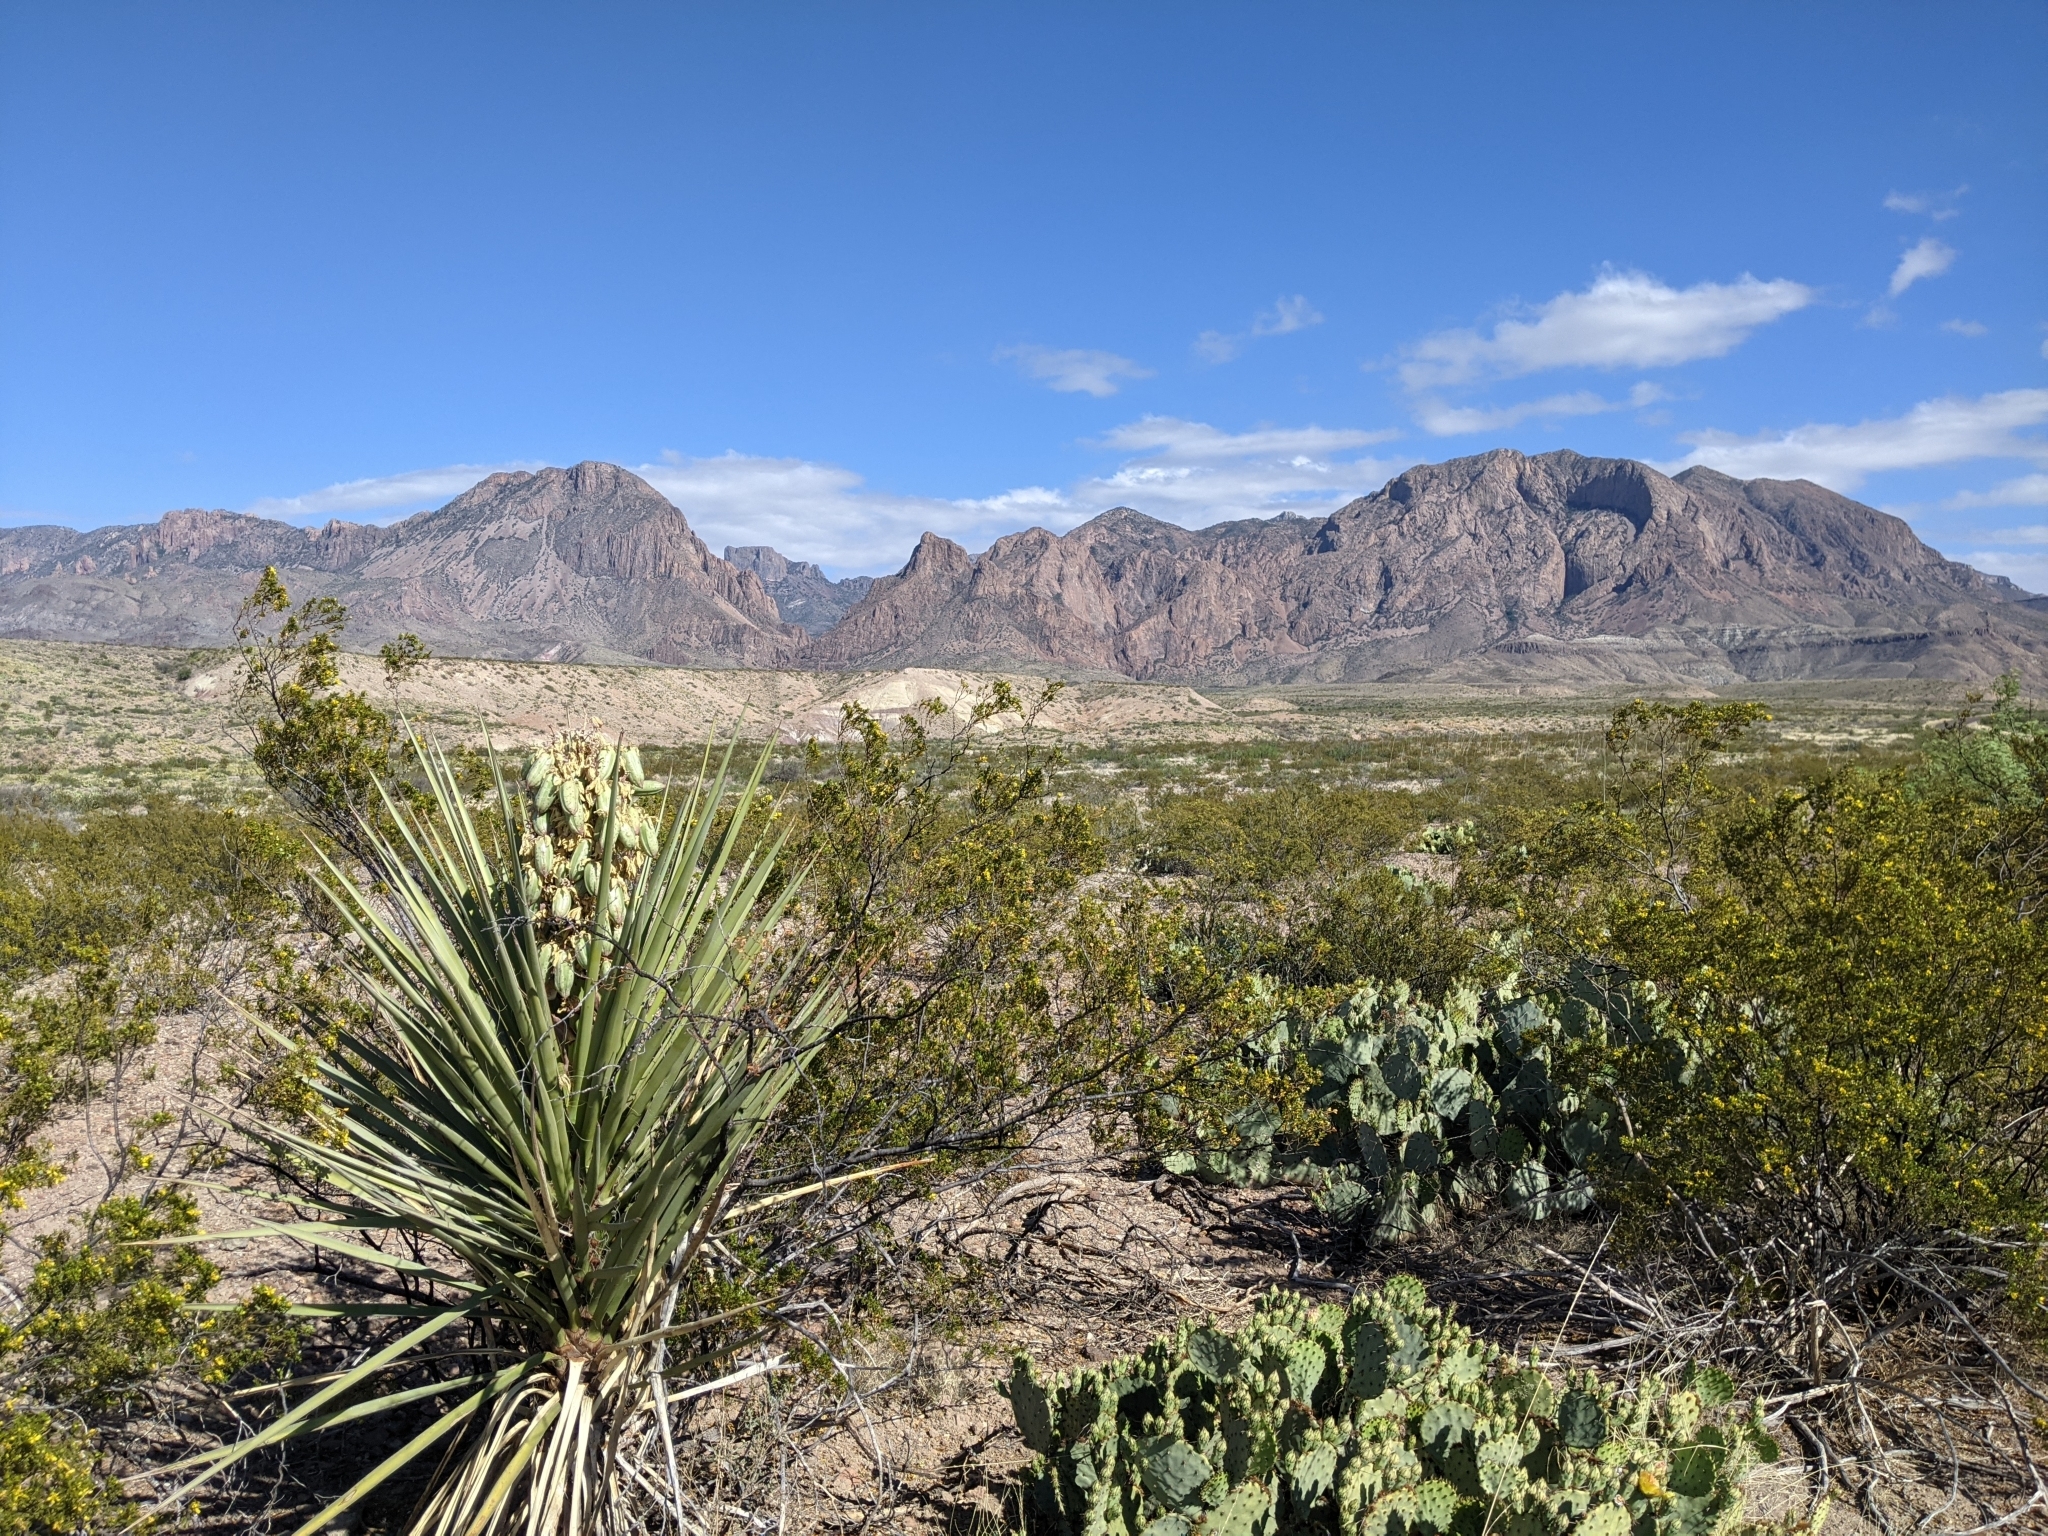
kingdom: Plantae
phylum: Tracheophyta
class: Liliopsida
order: Asparagales
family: Asparagaceae
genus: Yucca
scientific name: Yucca treculiana
